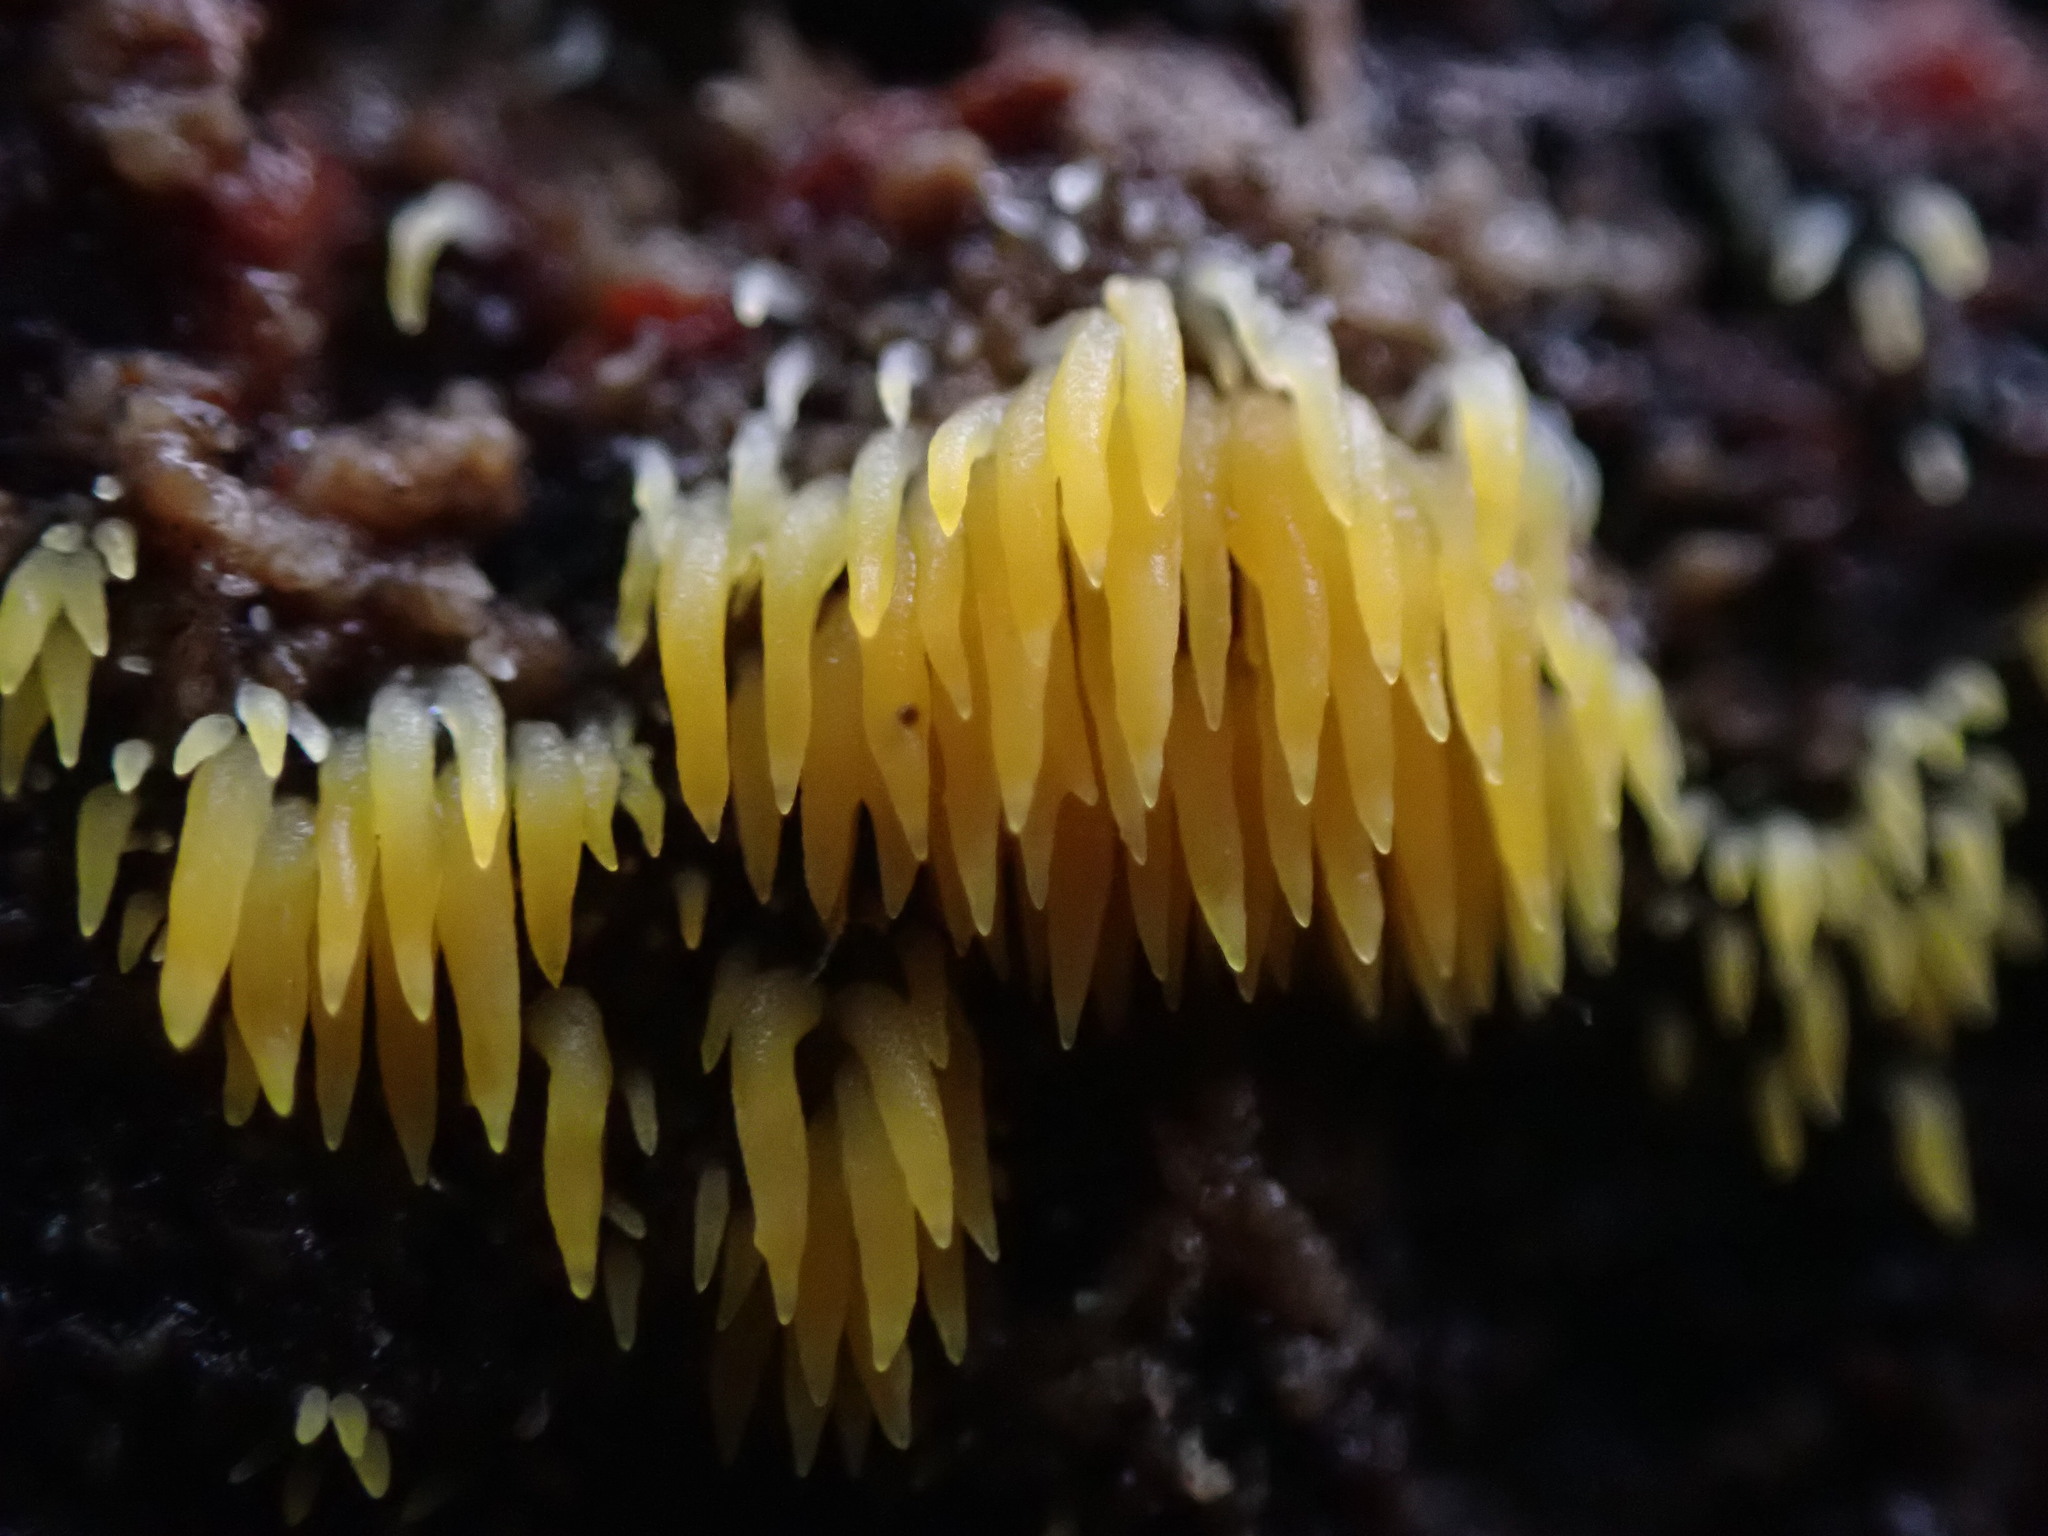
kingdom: Fungi
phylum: Basidiomycota
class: Agaricomycetes
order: Agaricales
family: Clavariaceae
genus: Mucronella
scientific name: Mucronella flava
